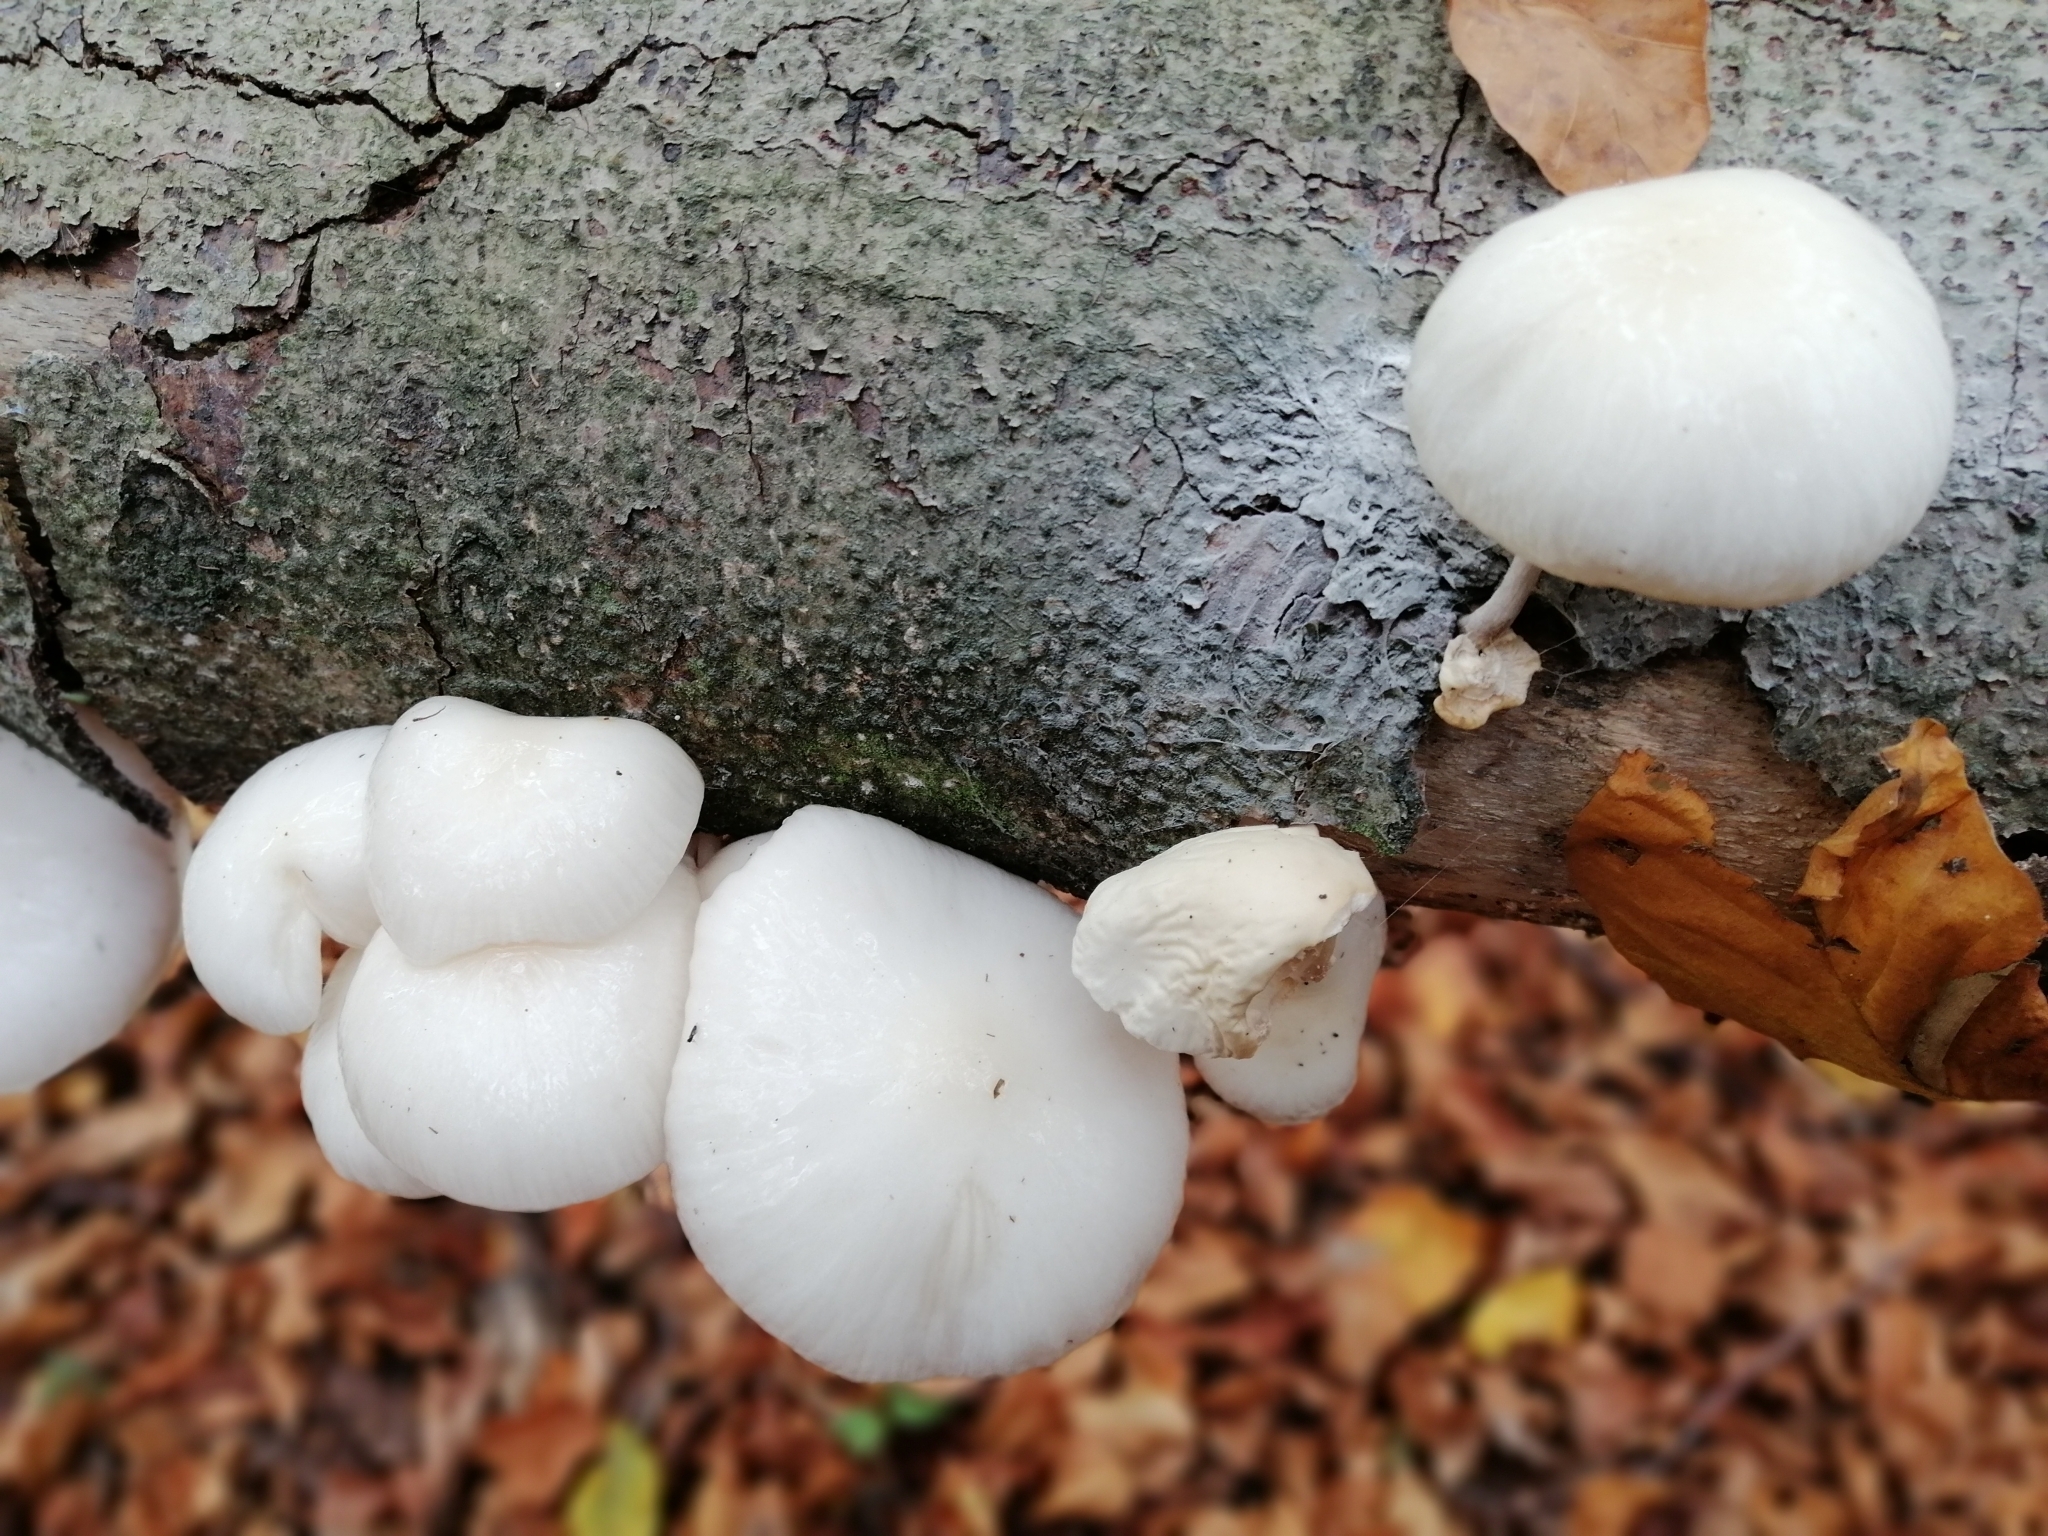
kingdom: Fungi
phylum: Basidiomycota
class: Agaricomycetes
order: Agaricales
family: Physalacriaceae
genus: Mucidula
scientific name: Mucidula mucida
